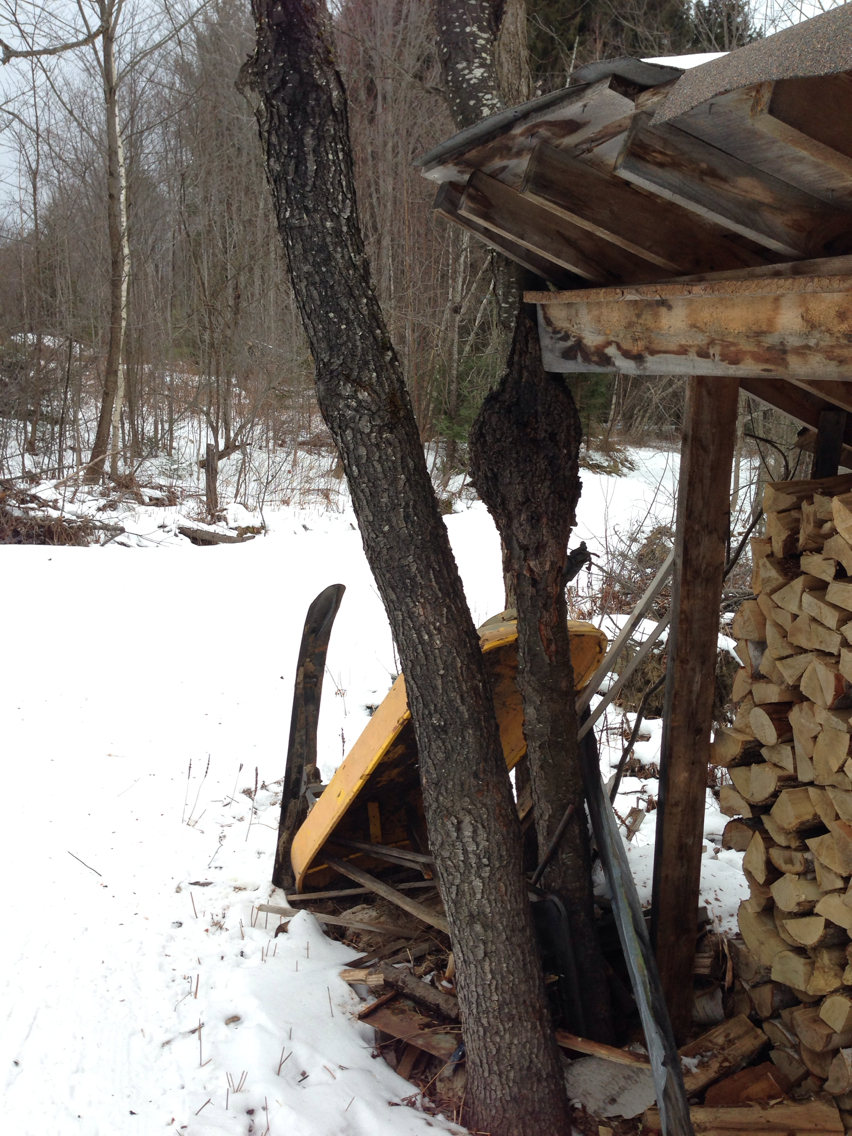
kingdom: Plantae
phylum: Tracheophyta
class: Magnoliopsida
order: Rosales
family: Rosaceae
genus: Prunus
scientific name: Prunus serotina
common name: Black cherry
